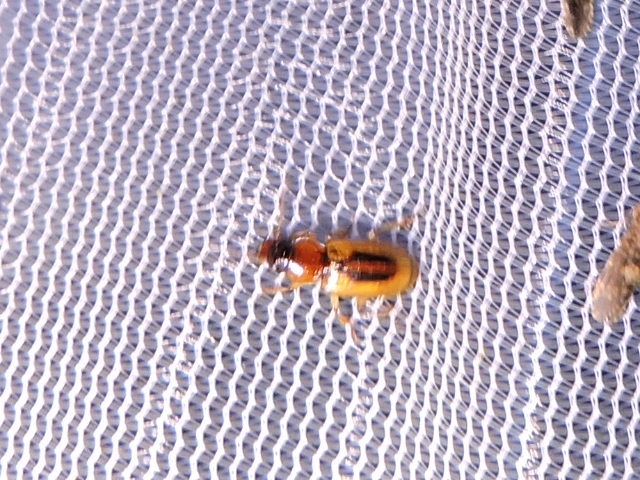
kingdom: Animalia
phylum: Arthropoda
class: Insecta
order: Coleoptera
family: Carabidae
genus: Stenolophus
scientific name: Stenolophus lecontei
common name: Leconte's seedcorn beetle
